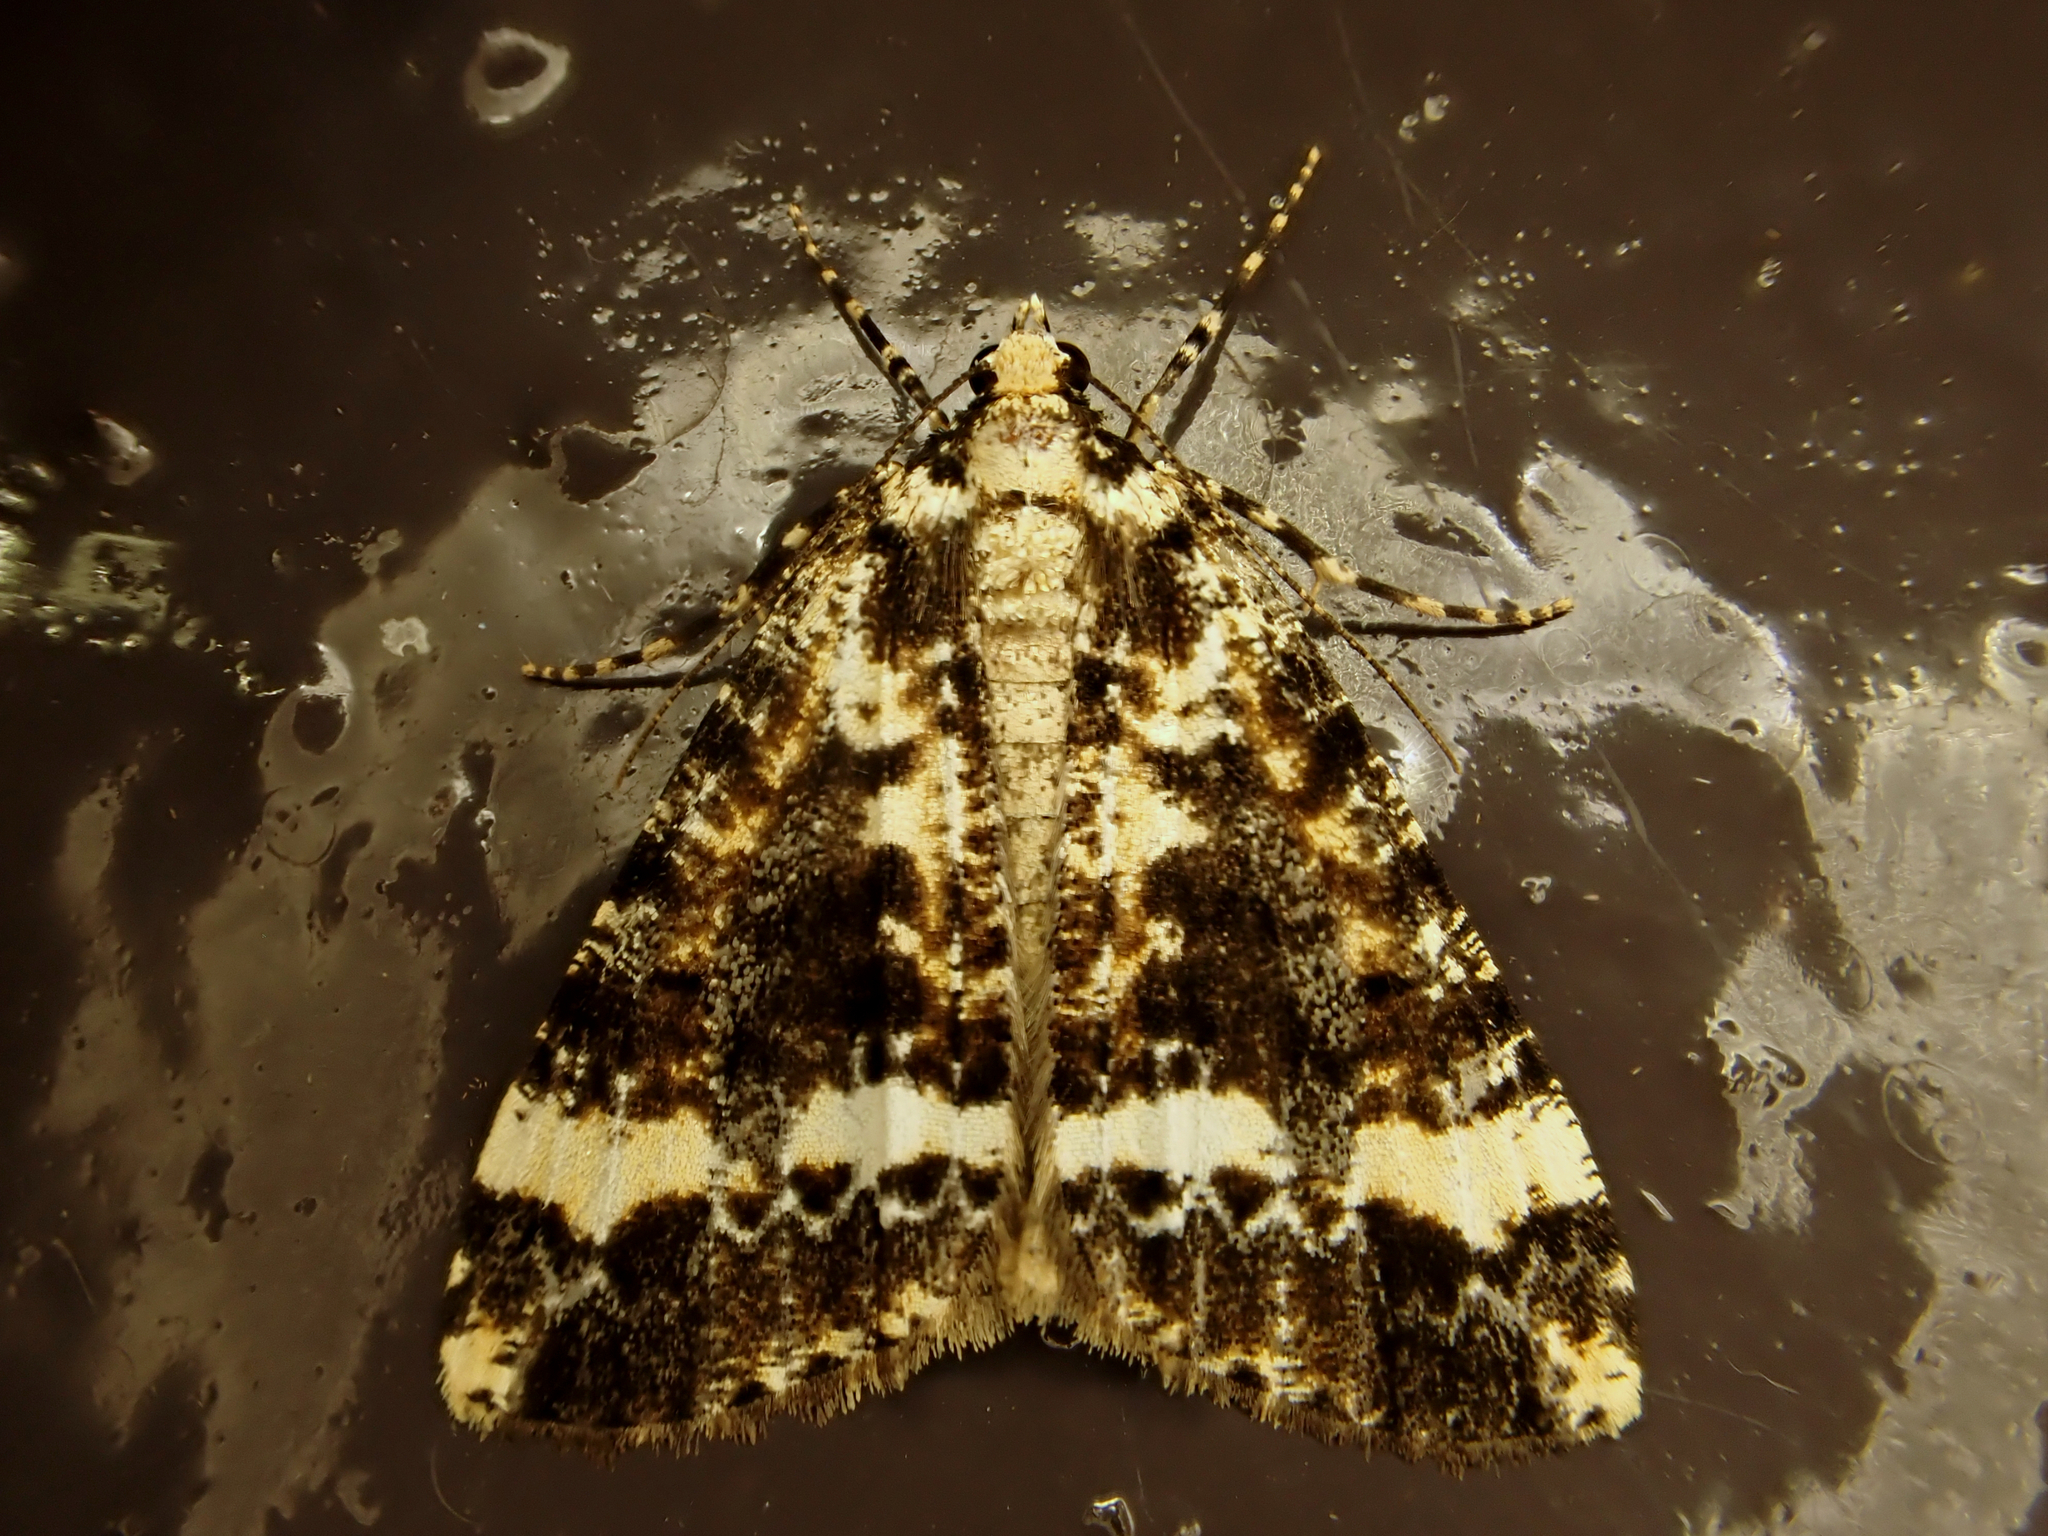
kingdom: Animalia
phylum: Arthropoda
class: Insecta
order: Lepidoptera
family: Geometridae
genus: Pseudocoremia
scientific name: Pseudocoremia leucelaea
